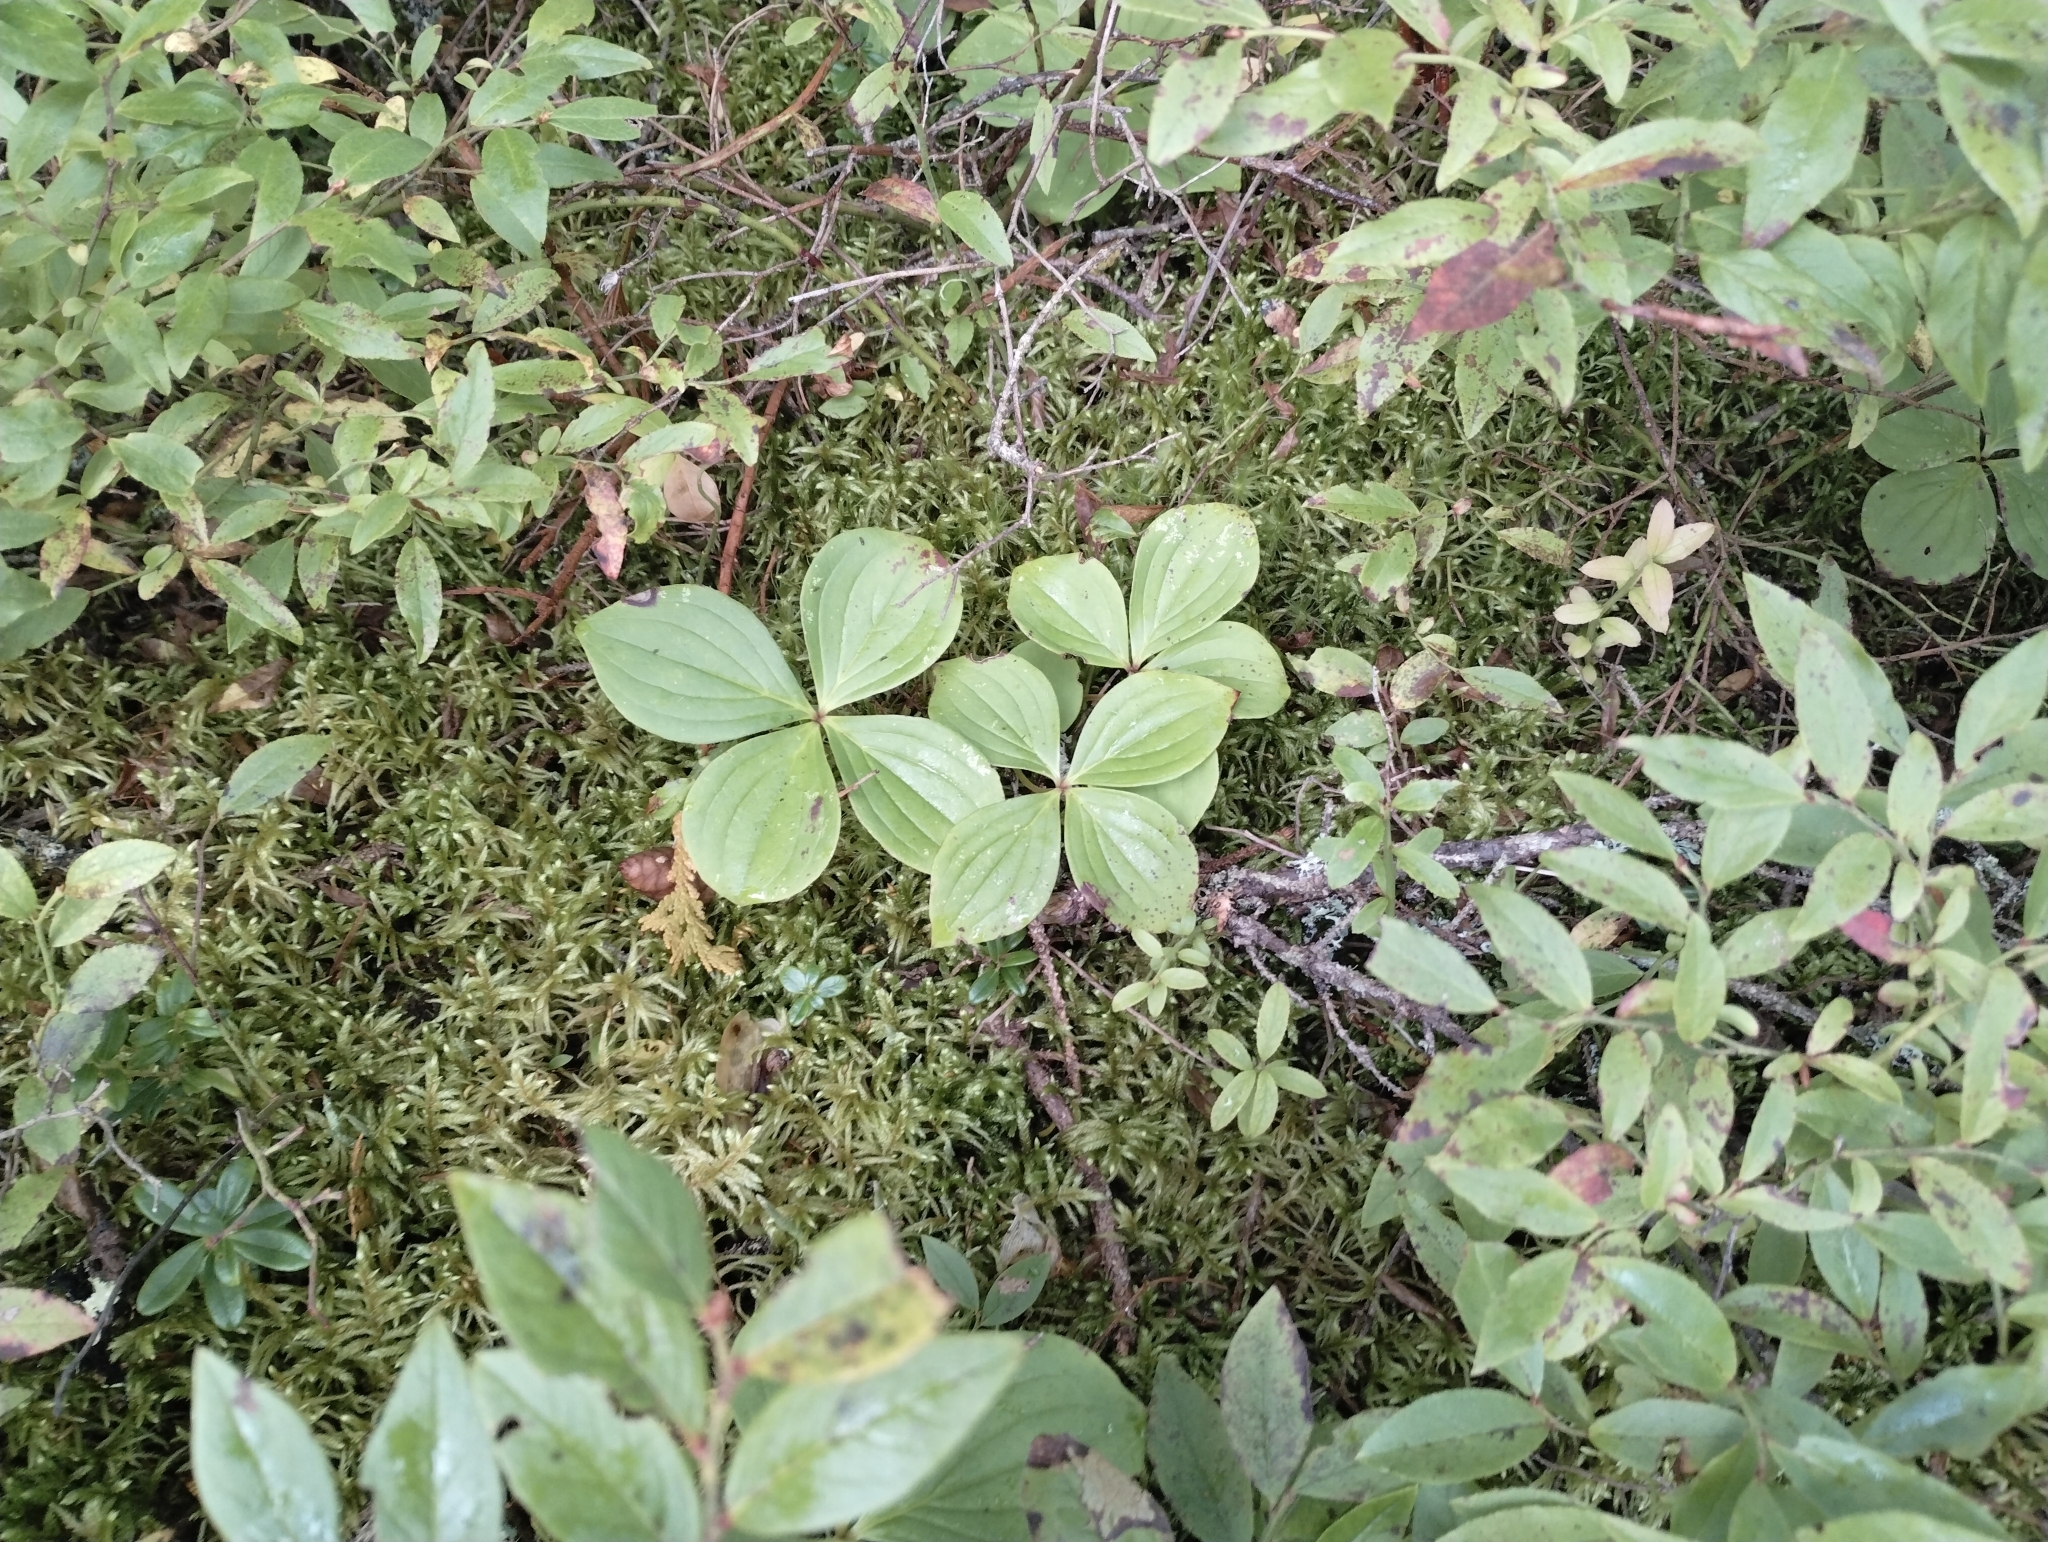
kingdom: Plantae
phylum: Tracheophyta
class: Magnoliopsida
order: Cornales
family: Cornaceae
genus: Cornus
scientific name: Cornus canadensis
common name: Creeping dogwood
